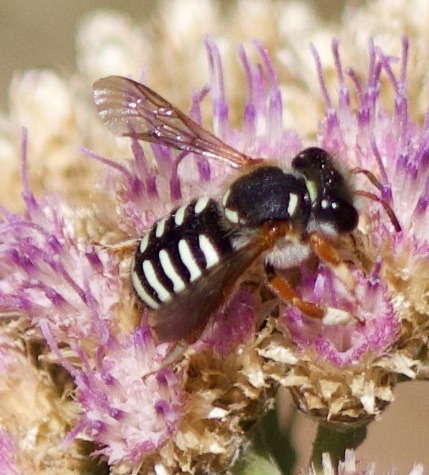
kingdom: Animalia
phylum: Arthropoda
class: Insecta
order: Hymenoptera
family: Megachilidae
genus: Anthidium
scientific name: Anthidium chilense
